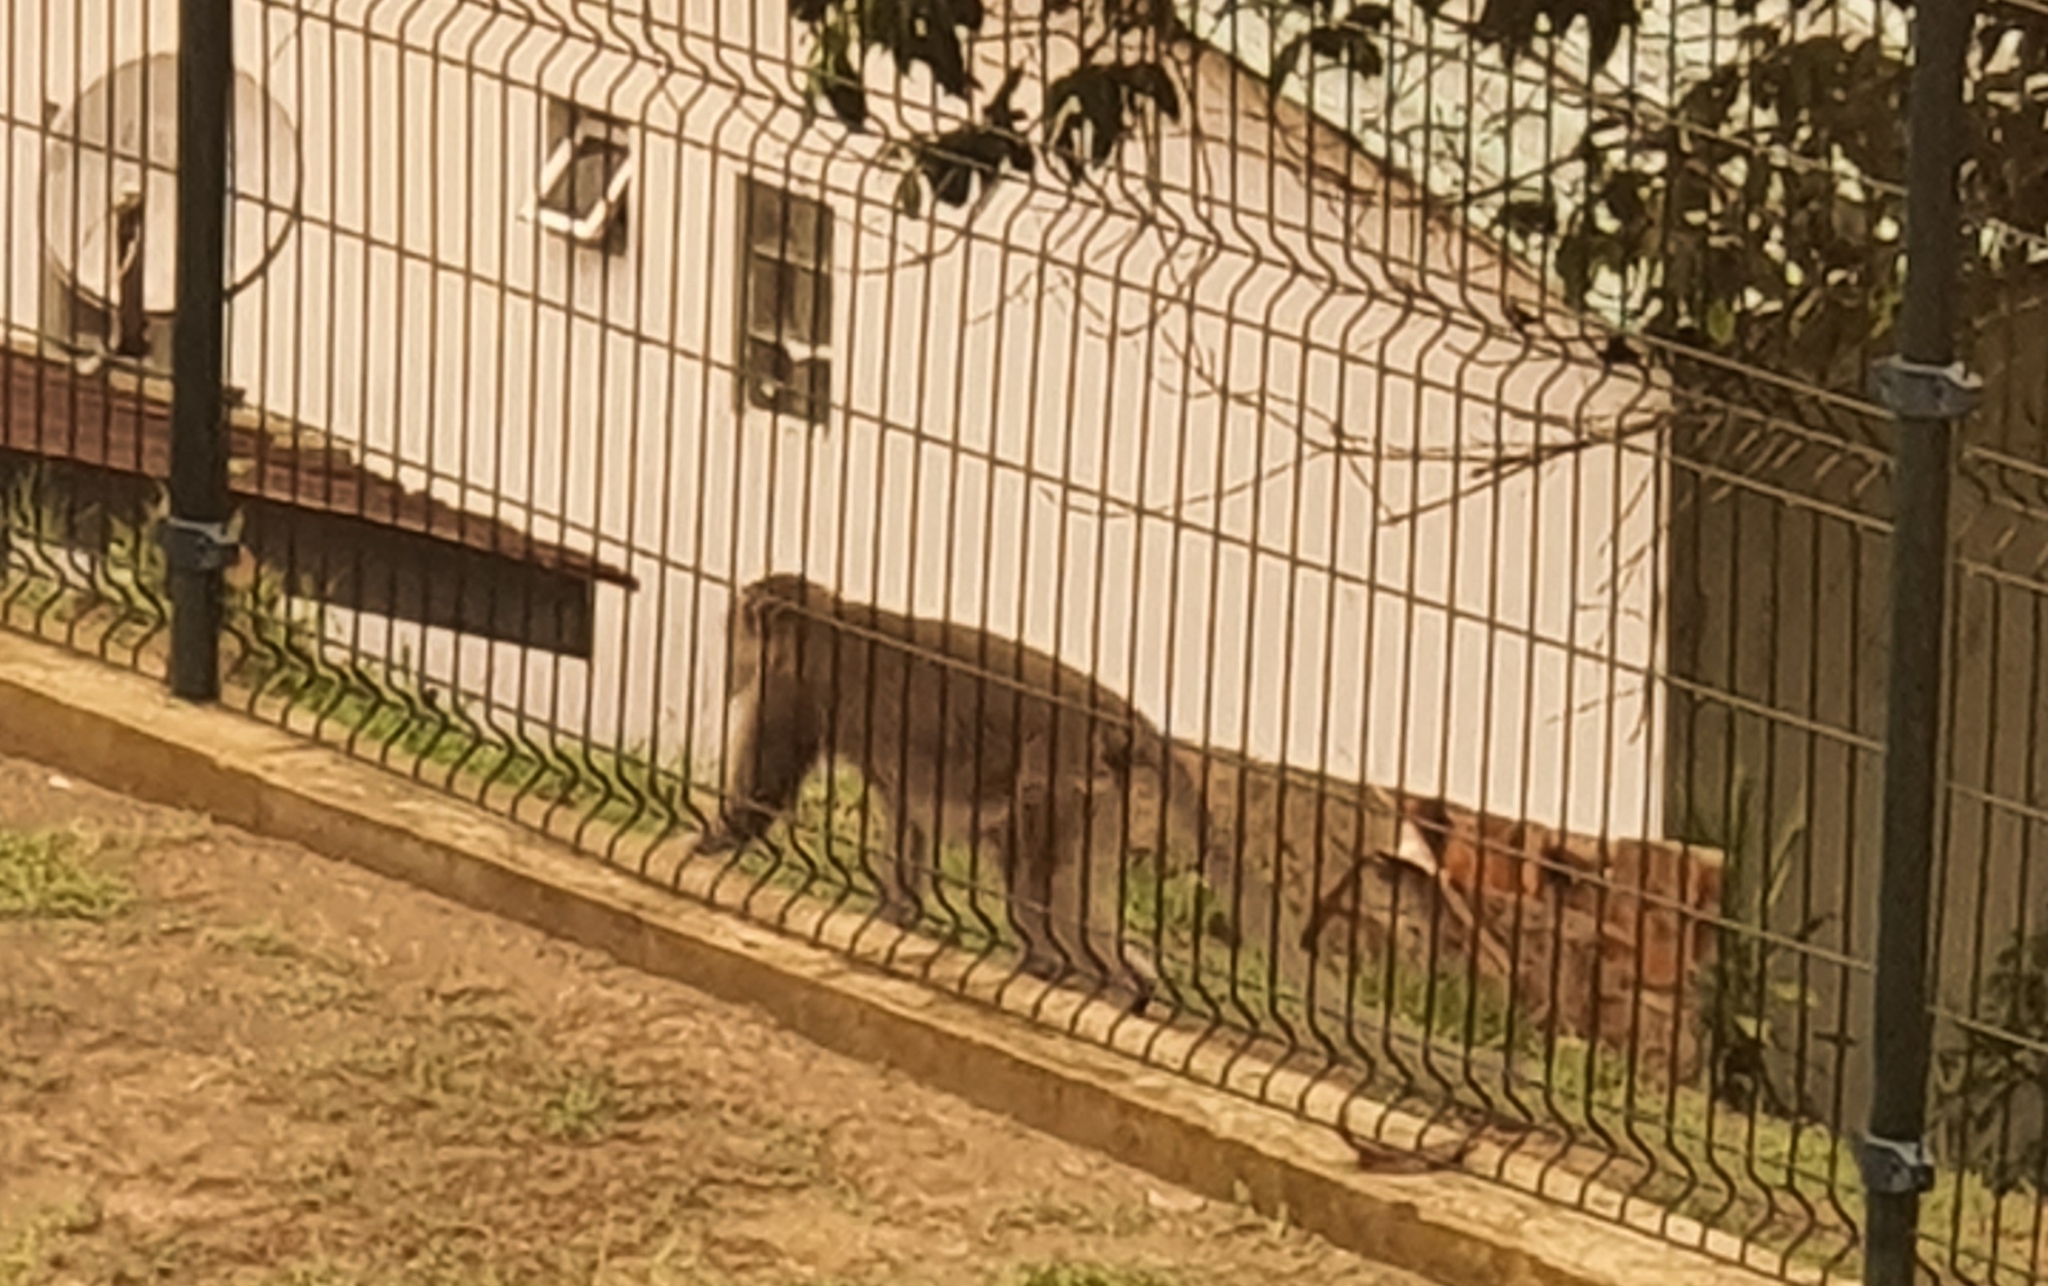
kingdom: Animalia
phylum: Chordata
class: Mammalia
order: Primates
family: Cercopithecidae
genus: Macaca
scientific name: Macaca fascicularis
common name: Crab-eating macaque
